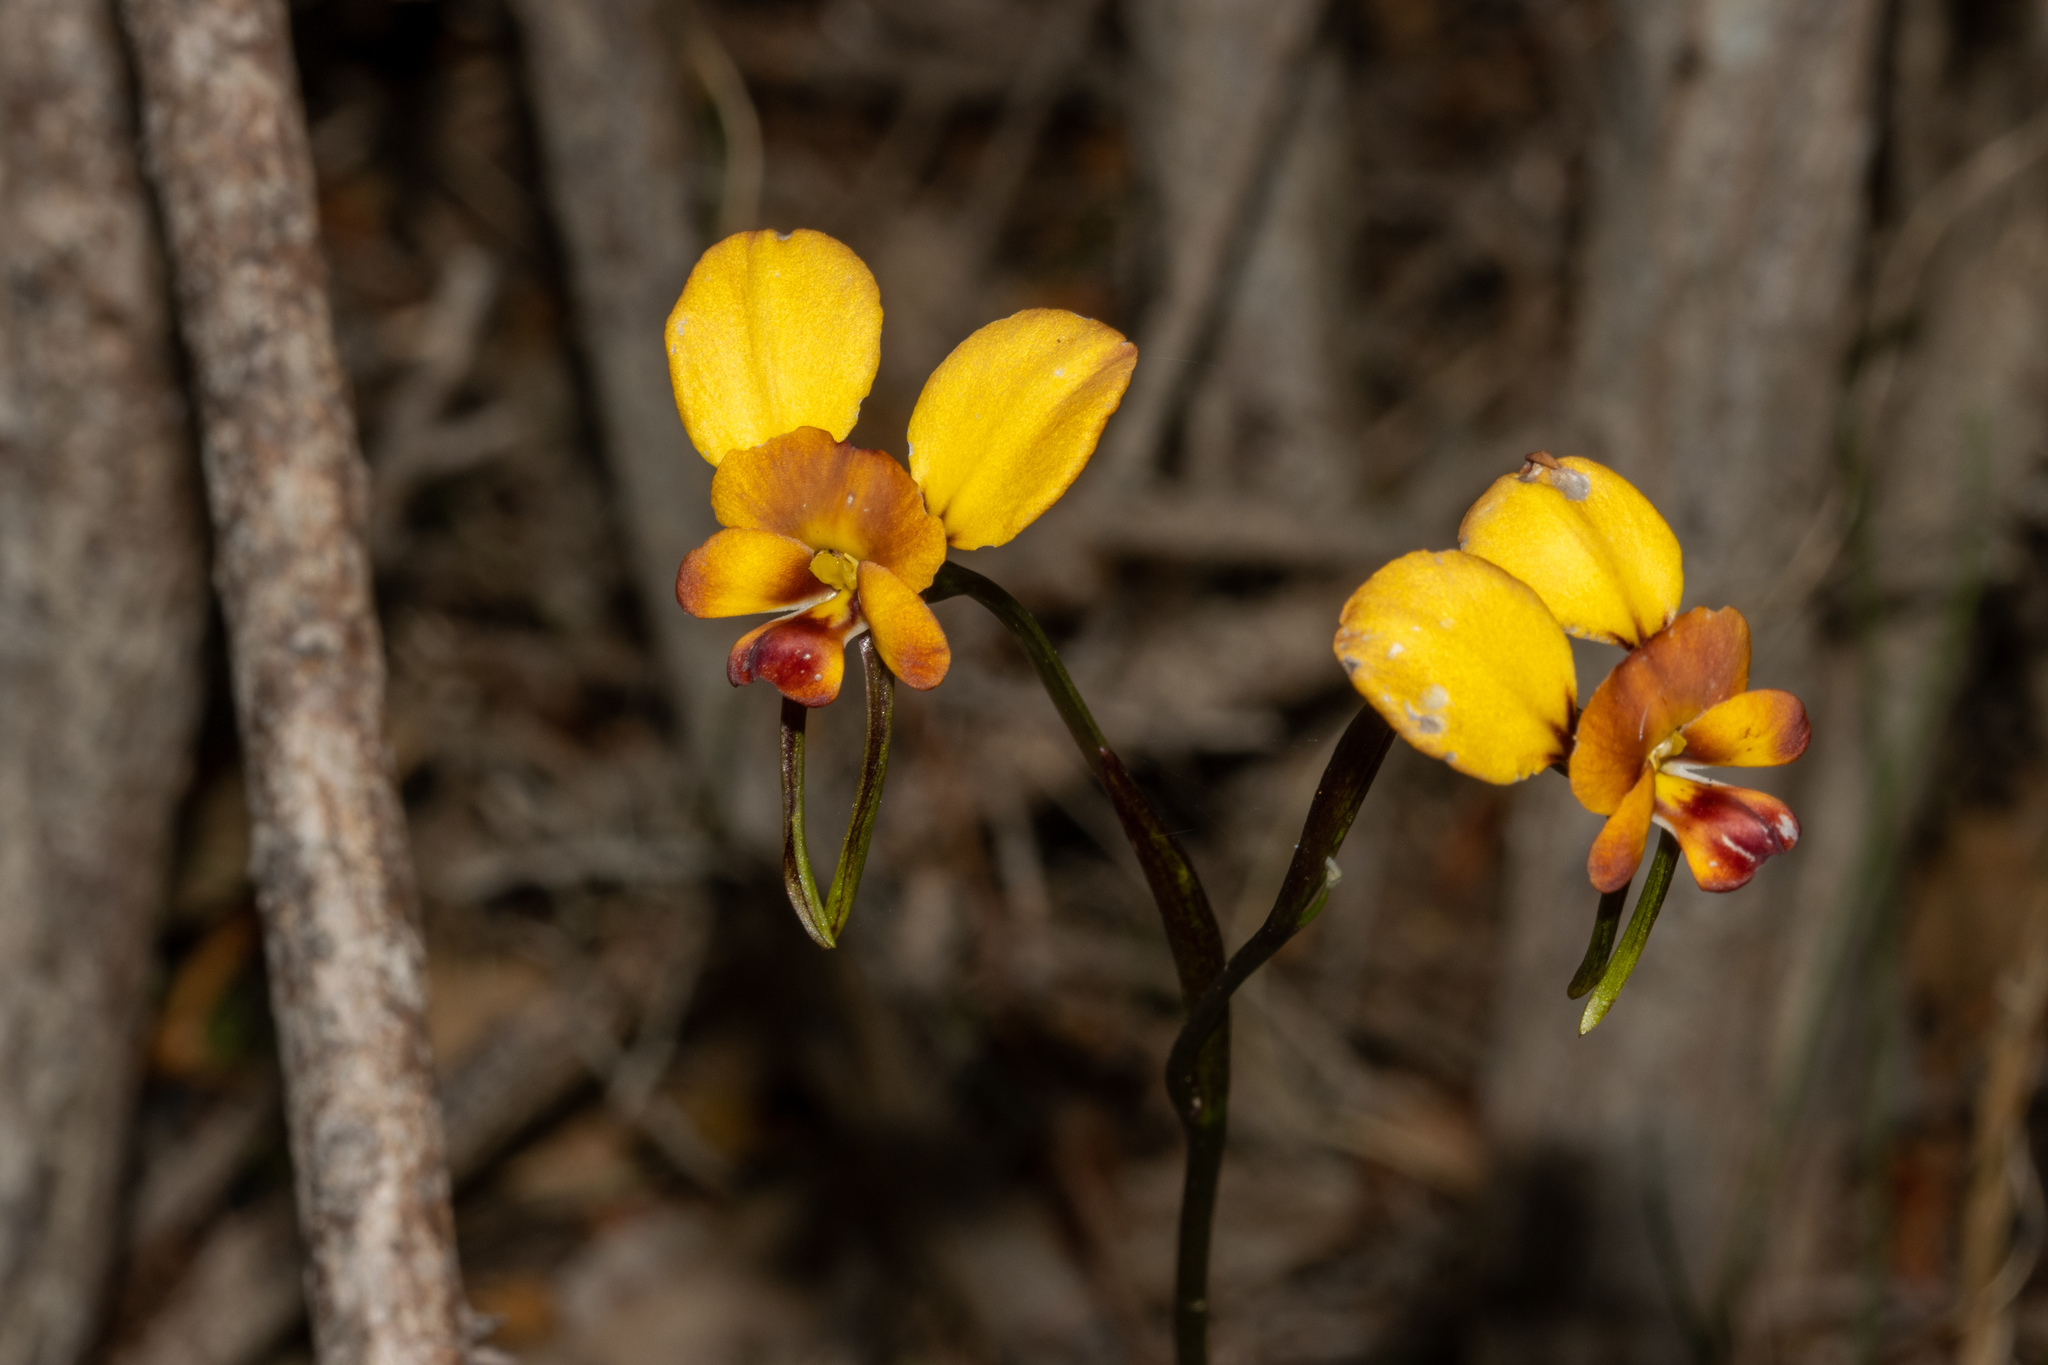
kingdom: Plantae
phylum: Tracheophyta
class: Liliopsida
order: Asparagales
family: Orchidaceae
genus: Diuris
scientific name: Diuris orientis
